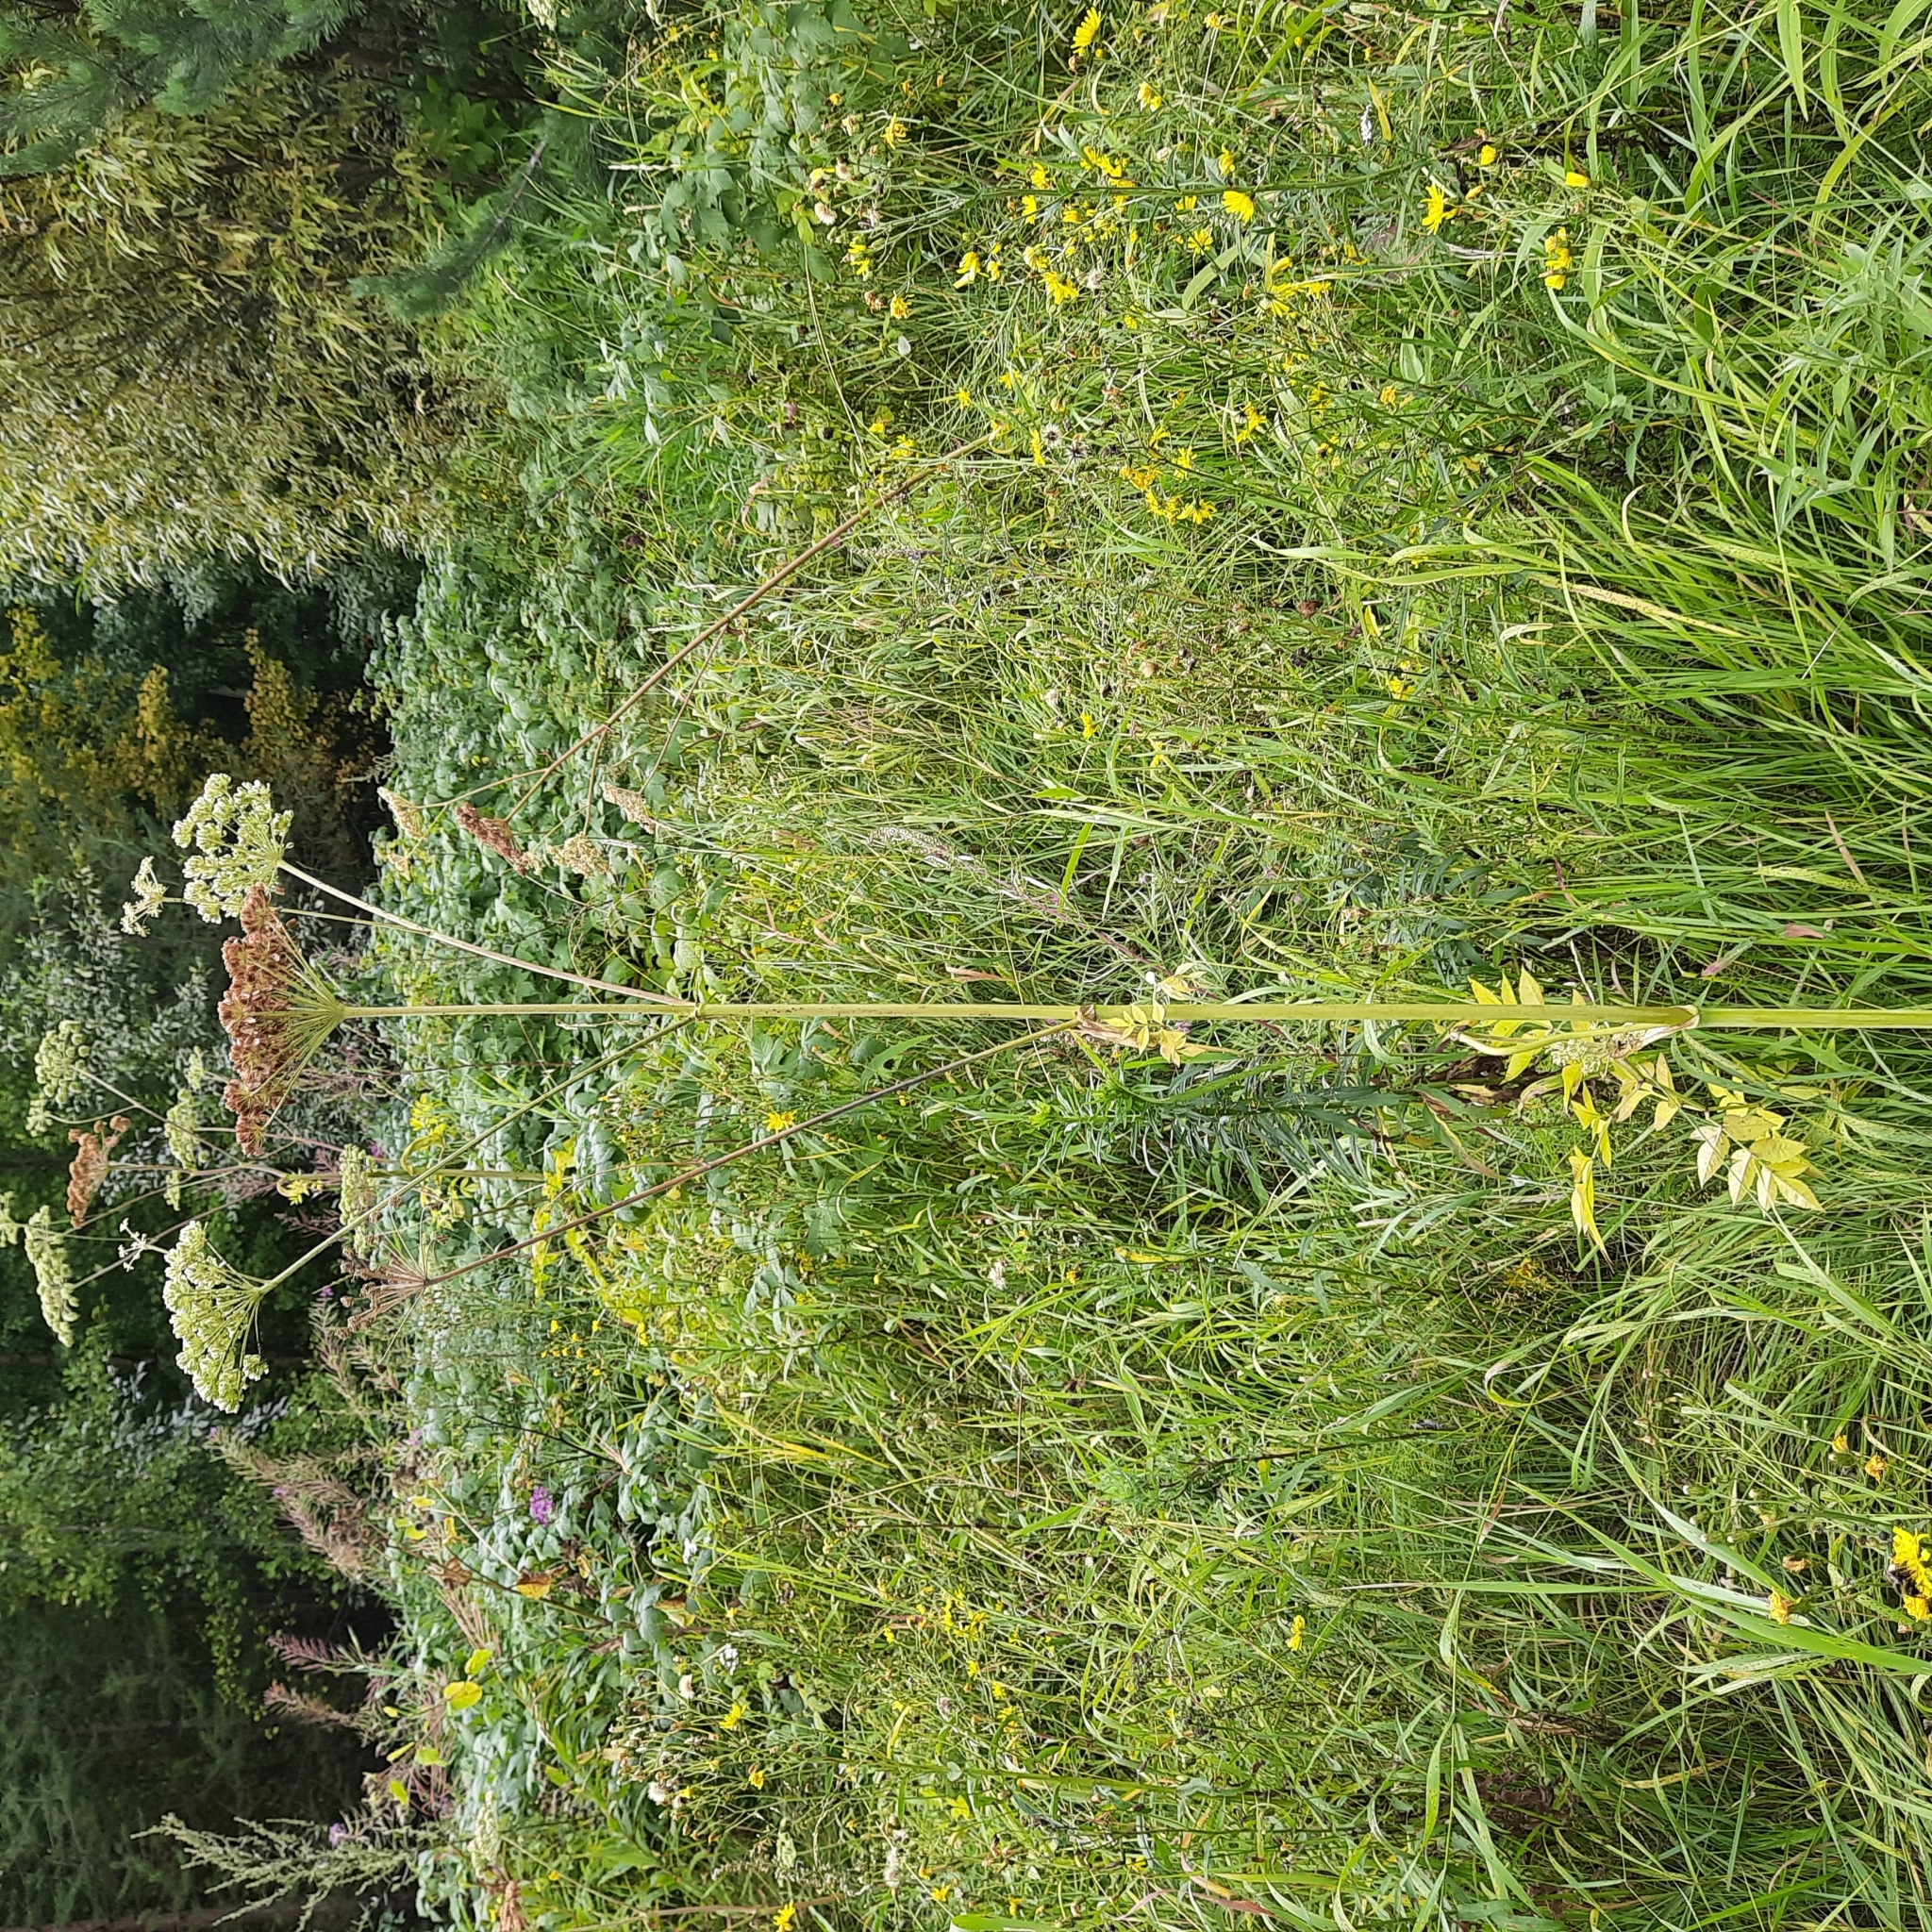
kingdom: Plantae
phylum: Tracheophyta
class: Magnoliopsida
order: Apiales
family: Apiaceae
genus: Angelica
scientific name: Angelica sylvestris
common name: Wild angelica
